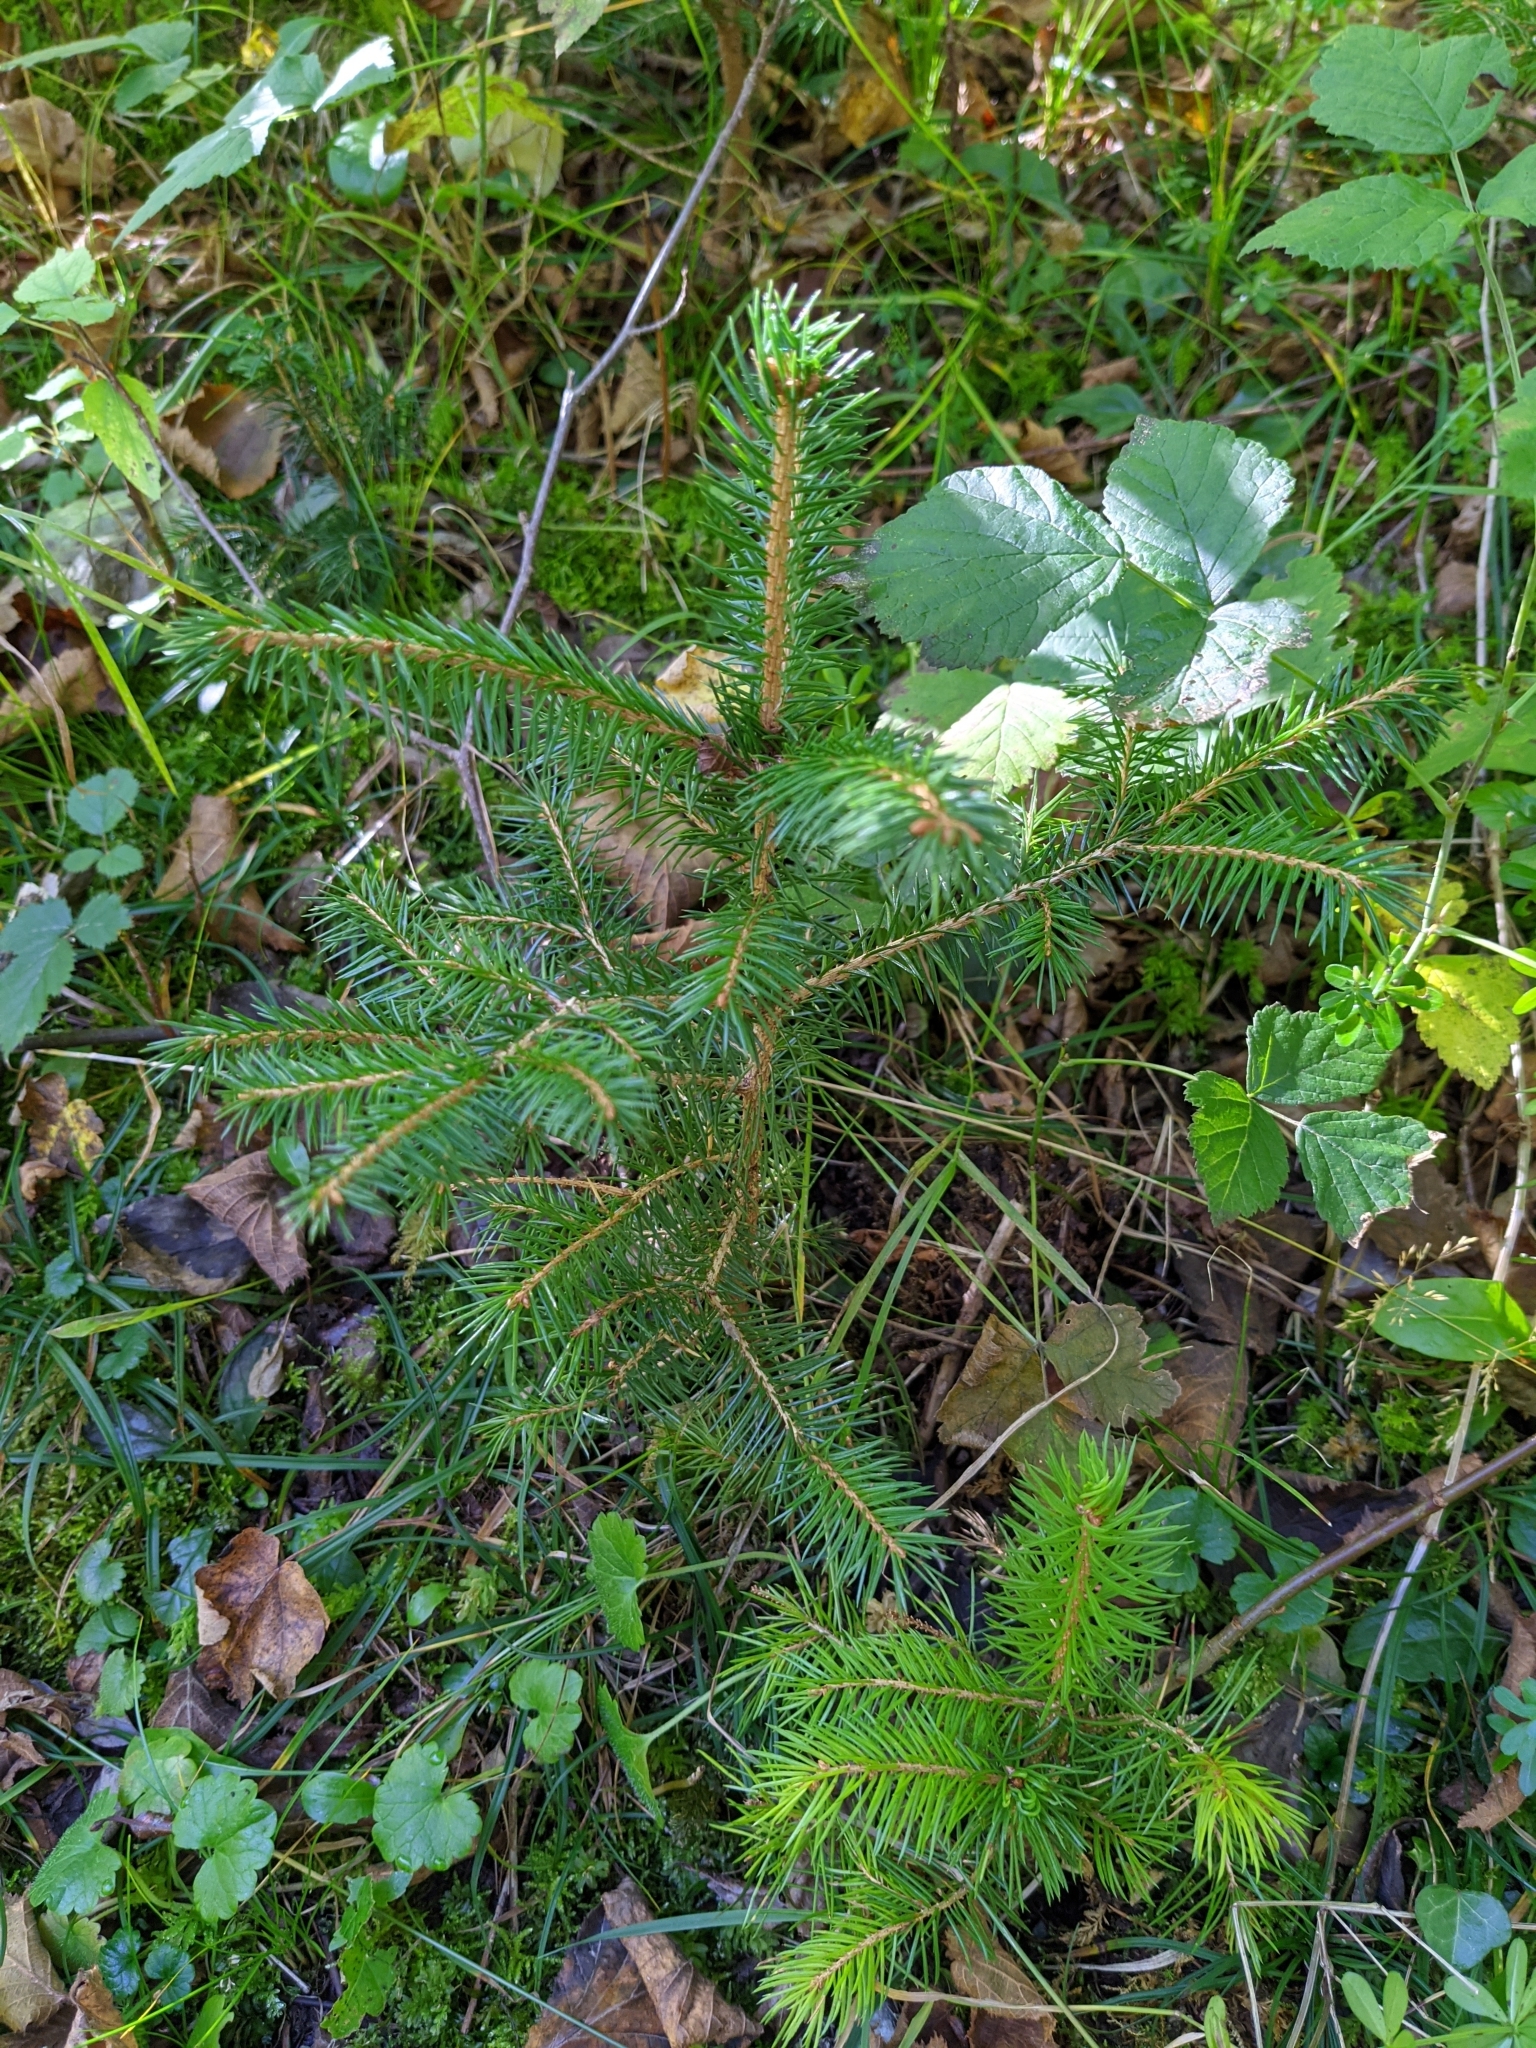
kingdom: Plantae
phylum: Tracheophyta
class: Pinopsida
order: Pinales
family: Pinaceae
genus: Picea
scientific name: Picea abies
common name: Norway spruce
